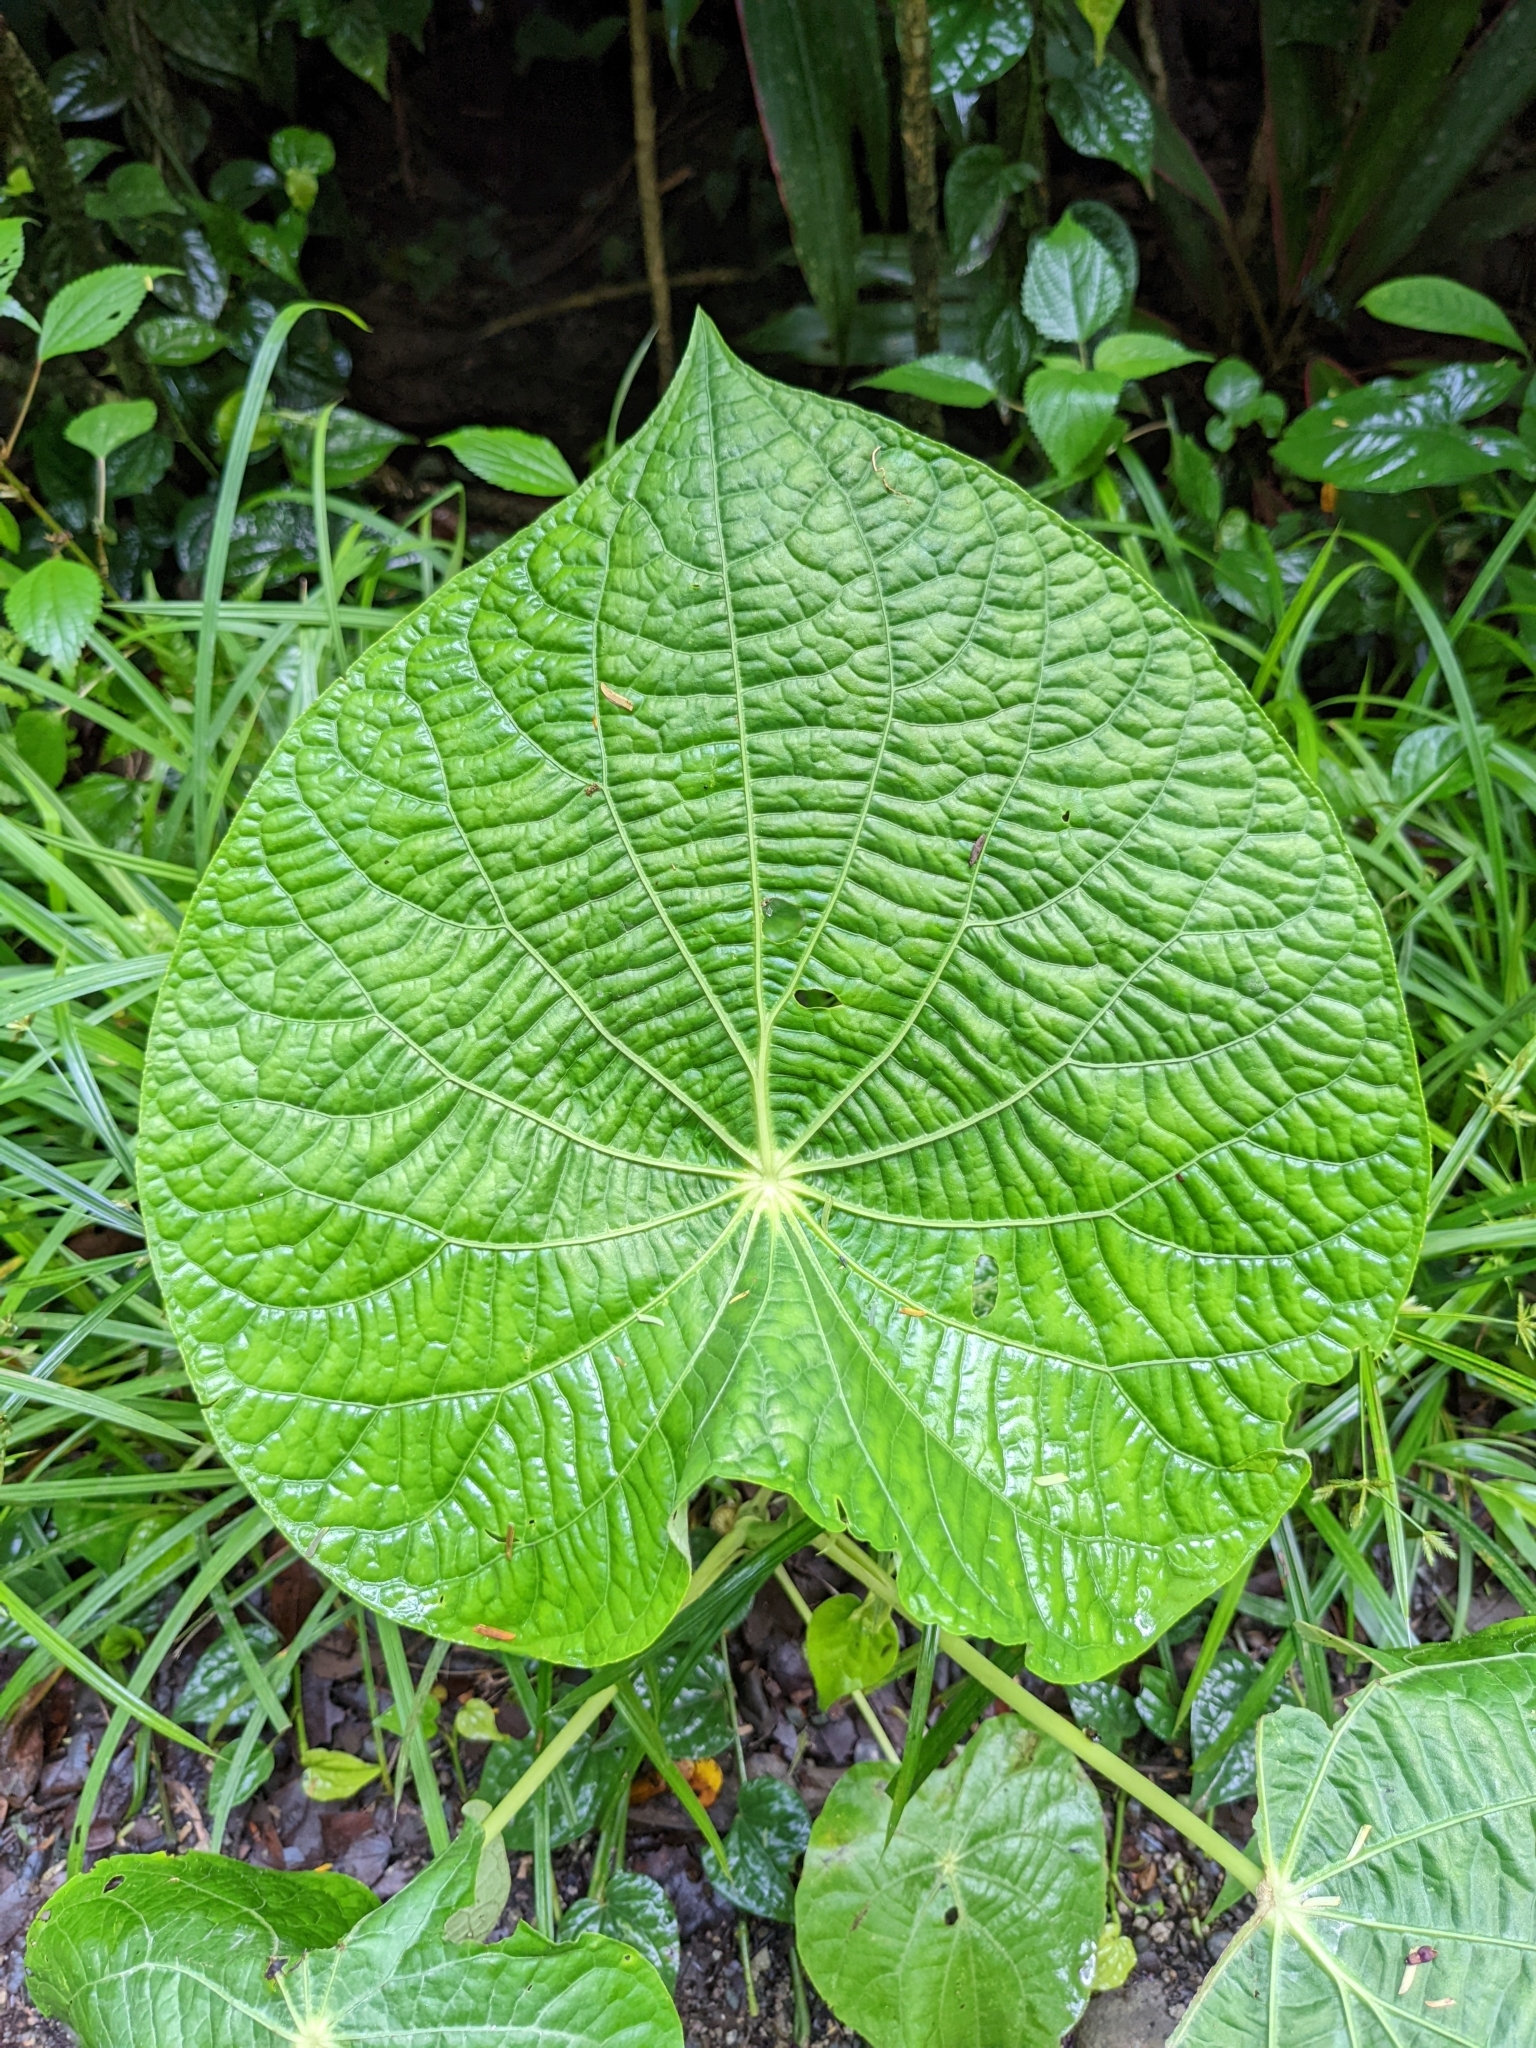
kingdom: Plantae
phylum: Tracheophyta
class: Magnoliopsida
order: Piperales
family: Piperaceae
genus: Piper
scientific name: Piper peltatum
